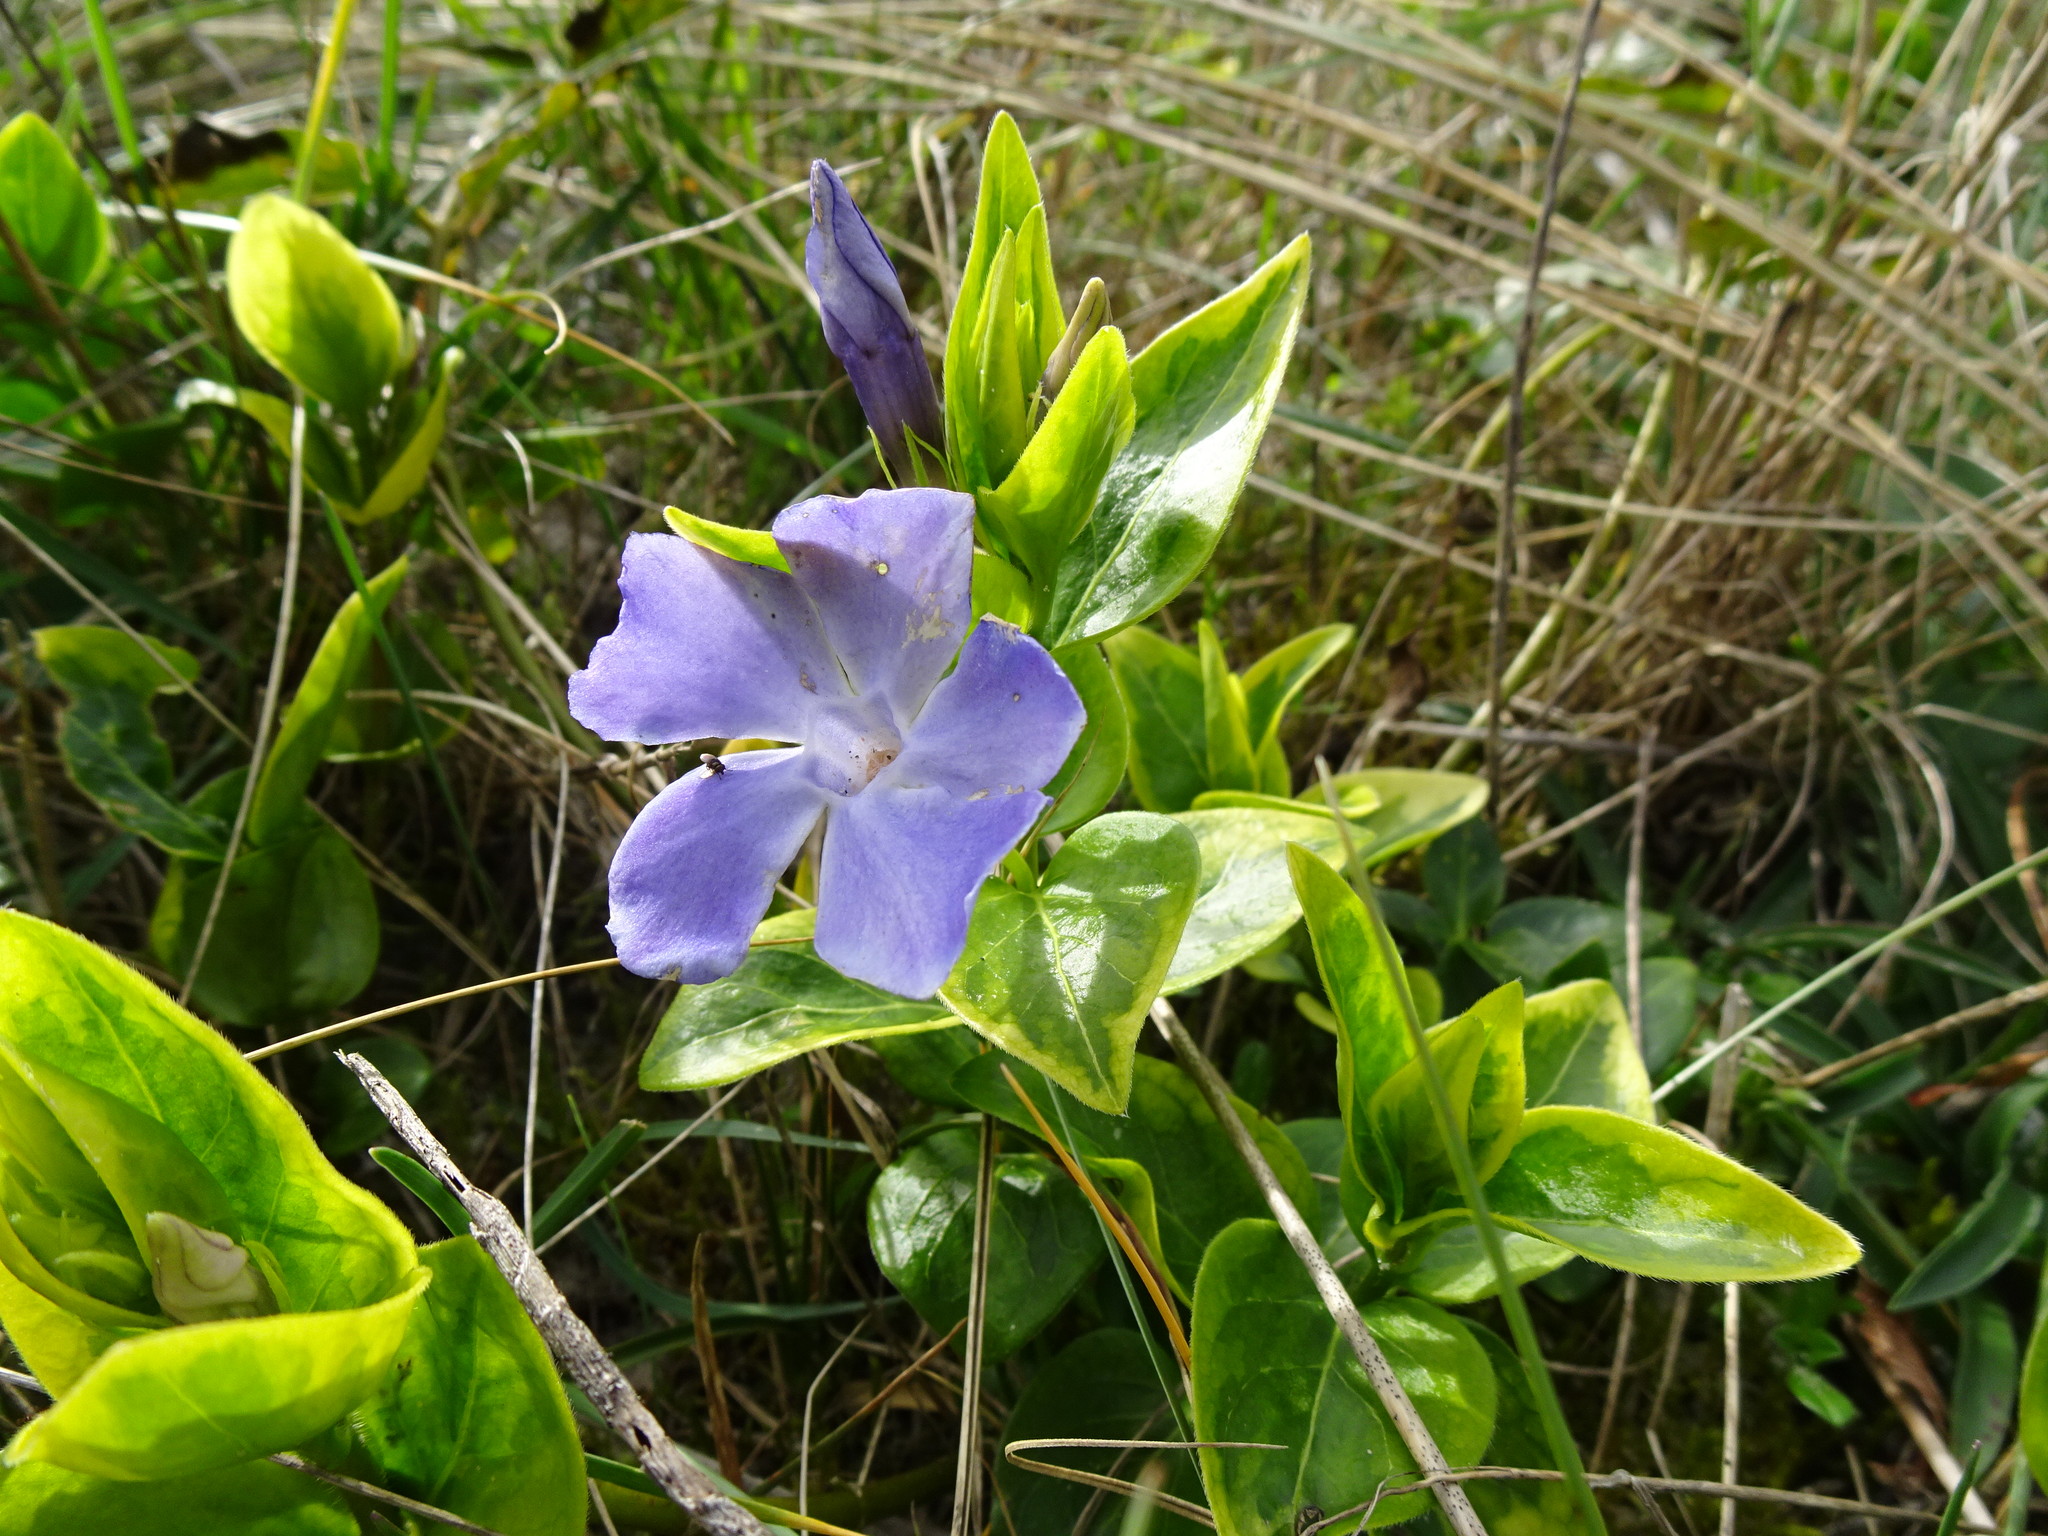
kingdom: Plantae
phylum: Tracheophyta
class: Magnoliopsida
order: Gentianales
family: Apocynaceae
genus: Vinca
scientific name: Vinca major
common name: Greater periwinkle
